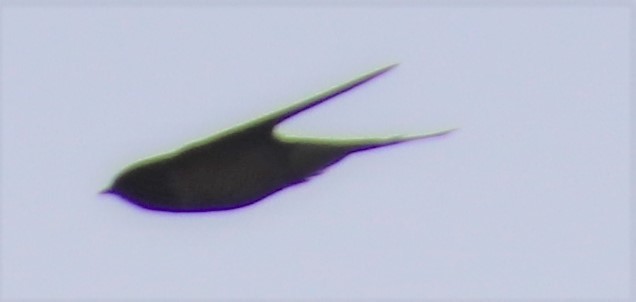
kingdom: Animalia
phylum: Chordata
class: Aves
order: Passeriformes
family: Hirundinidae
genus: Tachycineta
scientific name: Tachycineta bicolor
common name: Tree swallow
